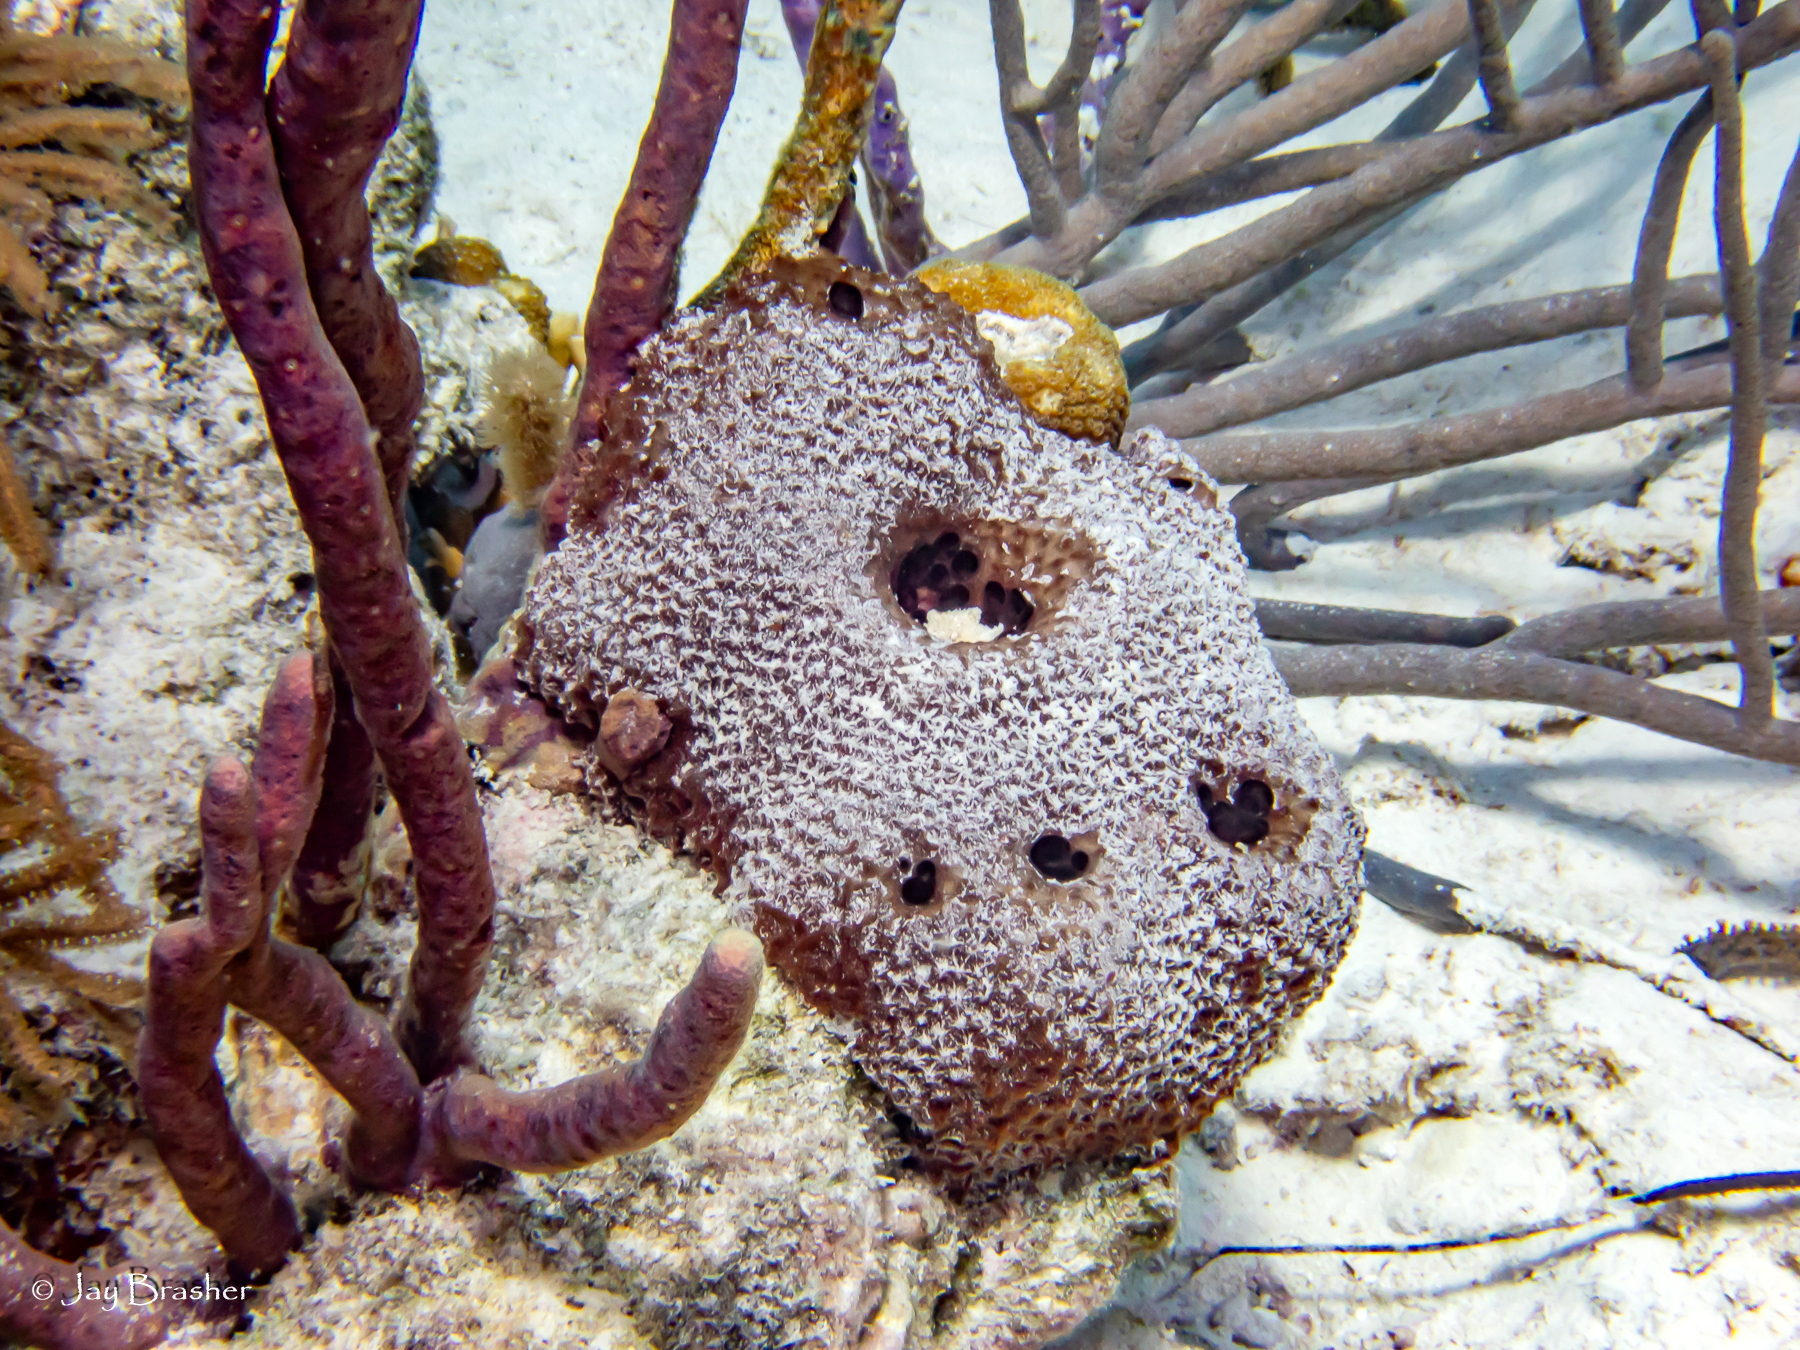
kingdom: Animalia
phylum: Porifera
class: Demospongiae
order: Verongiida
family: Aplysinidae
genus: Aplysina
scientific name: Aplysina cauliformis
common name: Branching candle sponge
